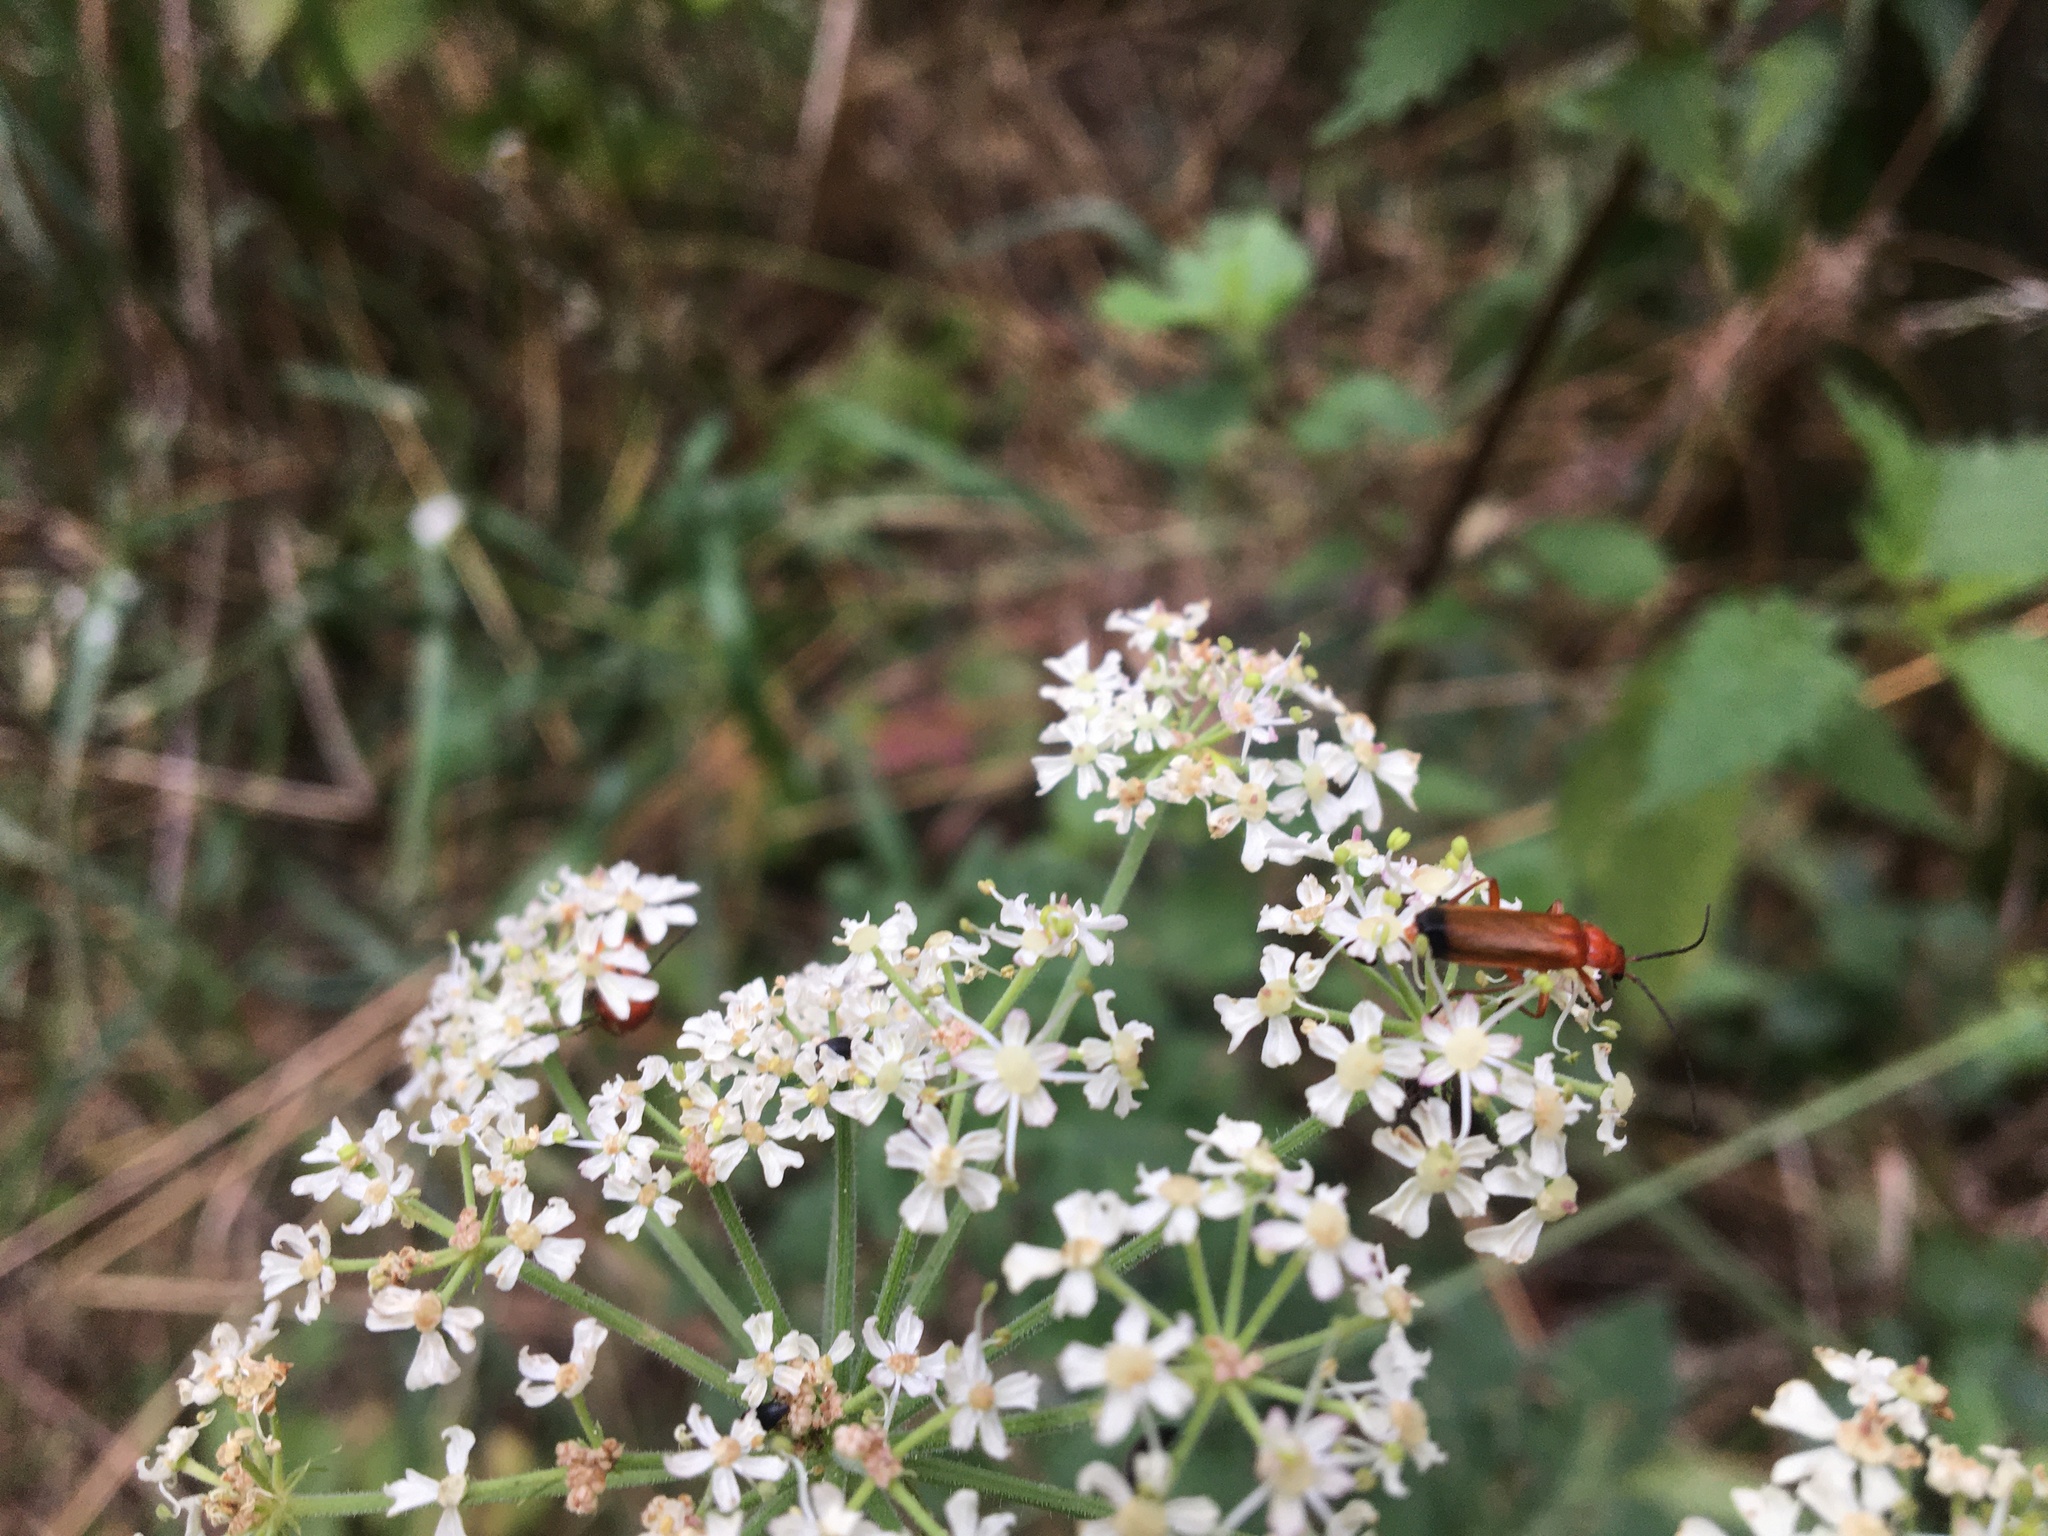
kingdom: Animalia
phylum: Arthropoda
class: Insecta
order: Coleoptera
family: Cantharidae
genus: Rhagonycha
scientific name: Rhagonycha fulva
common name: Common red soldier beetle
